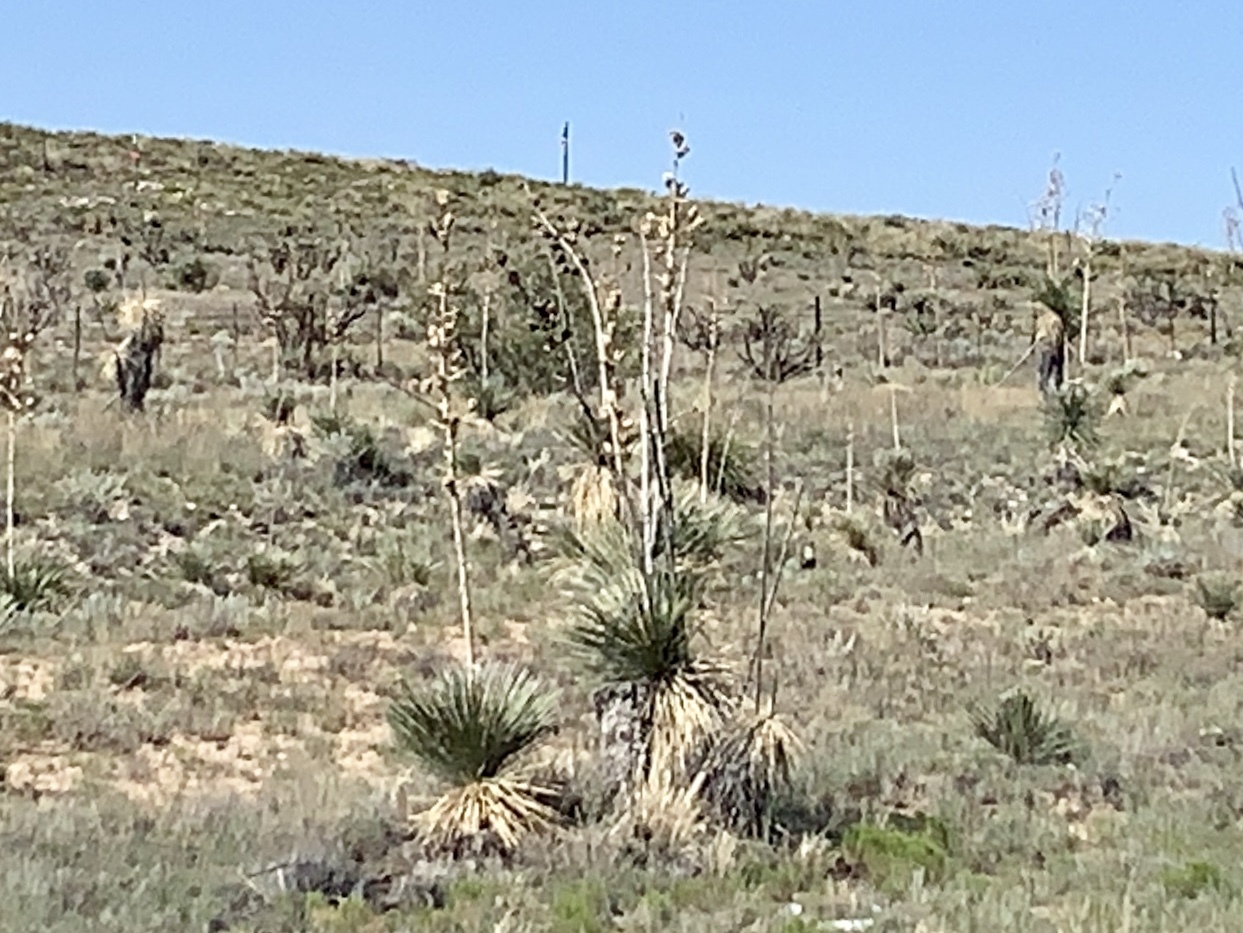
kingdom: Plantae
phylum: Tracheophyta
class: Liliopsida
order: Asparagales
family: Asparagaceae
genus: Yucca
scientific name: Yucca elata
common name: Palmella
